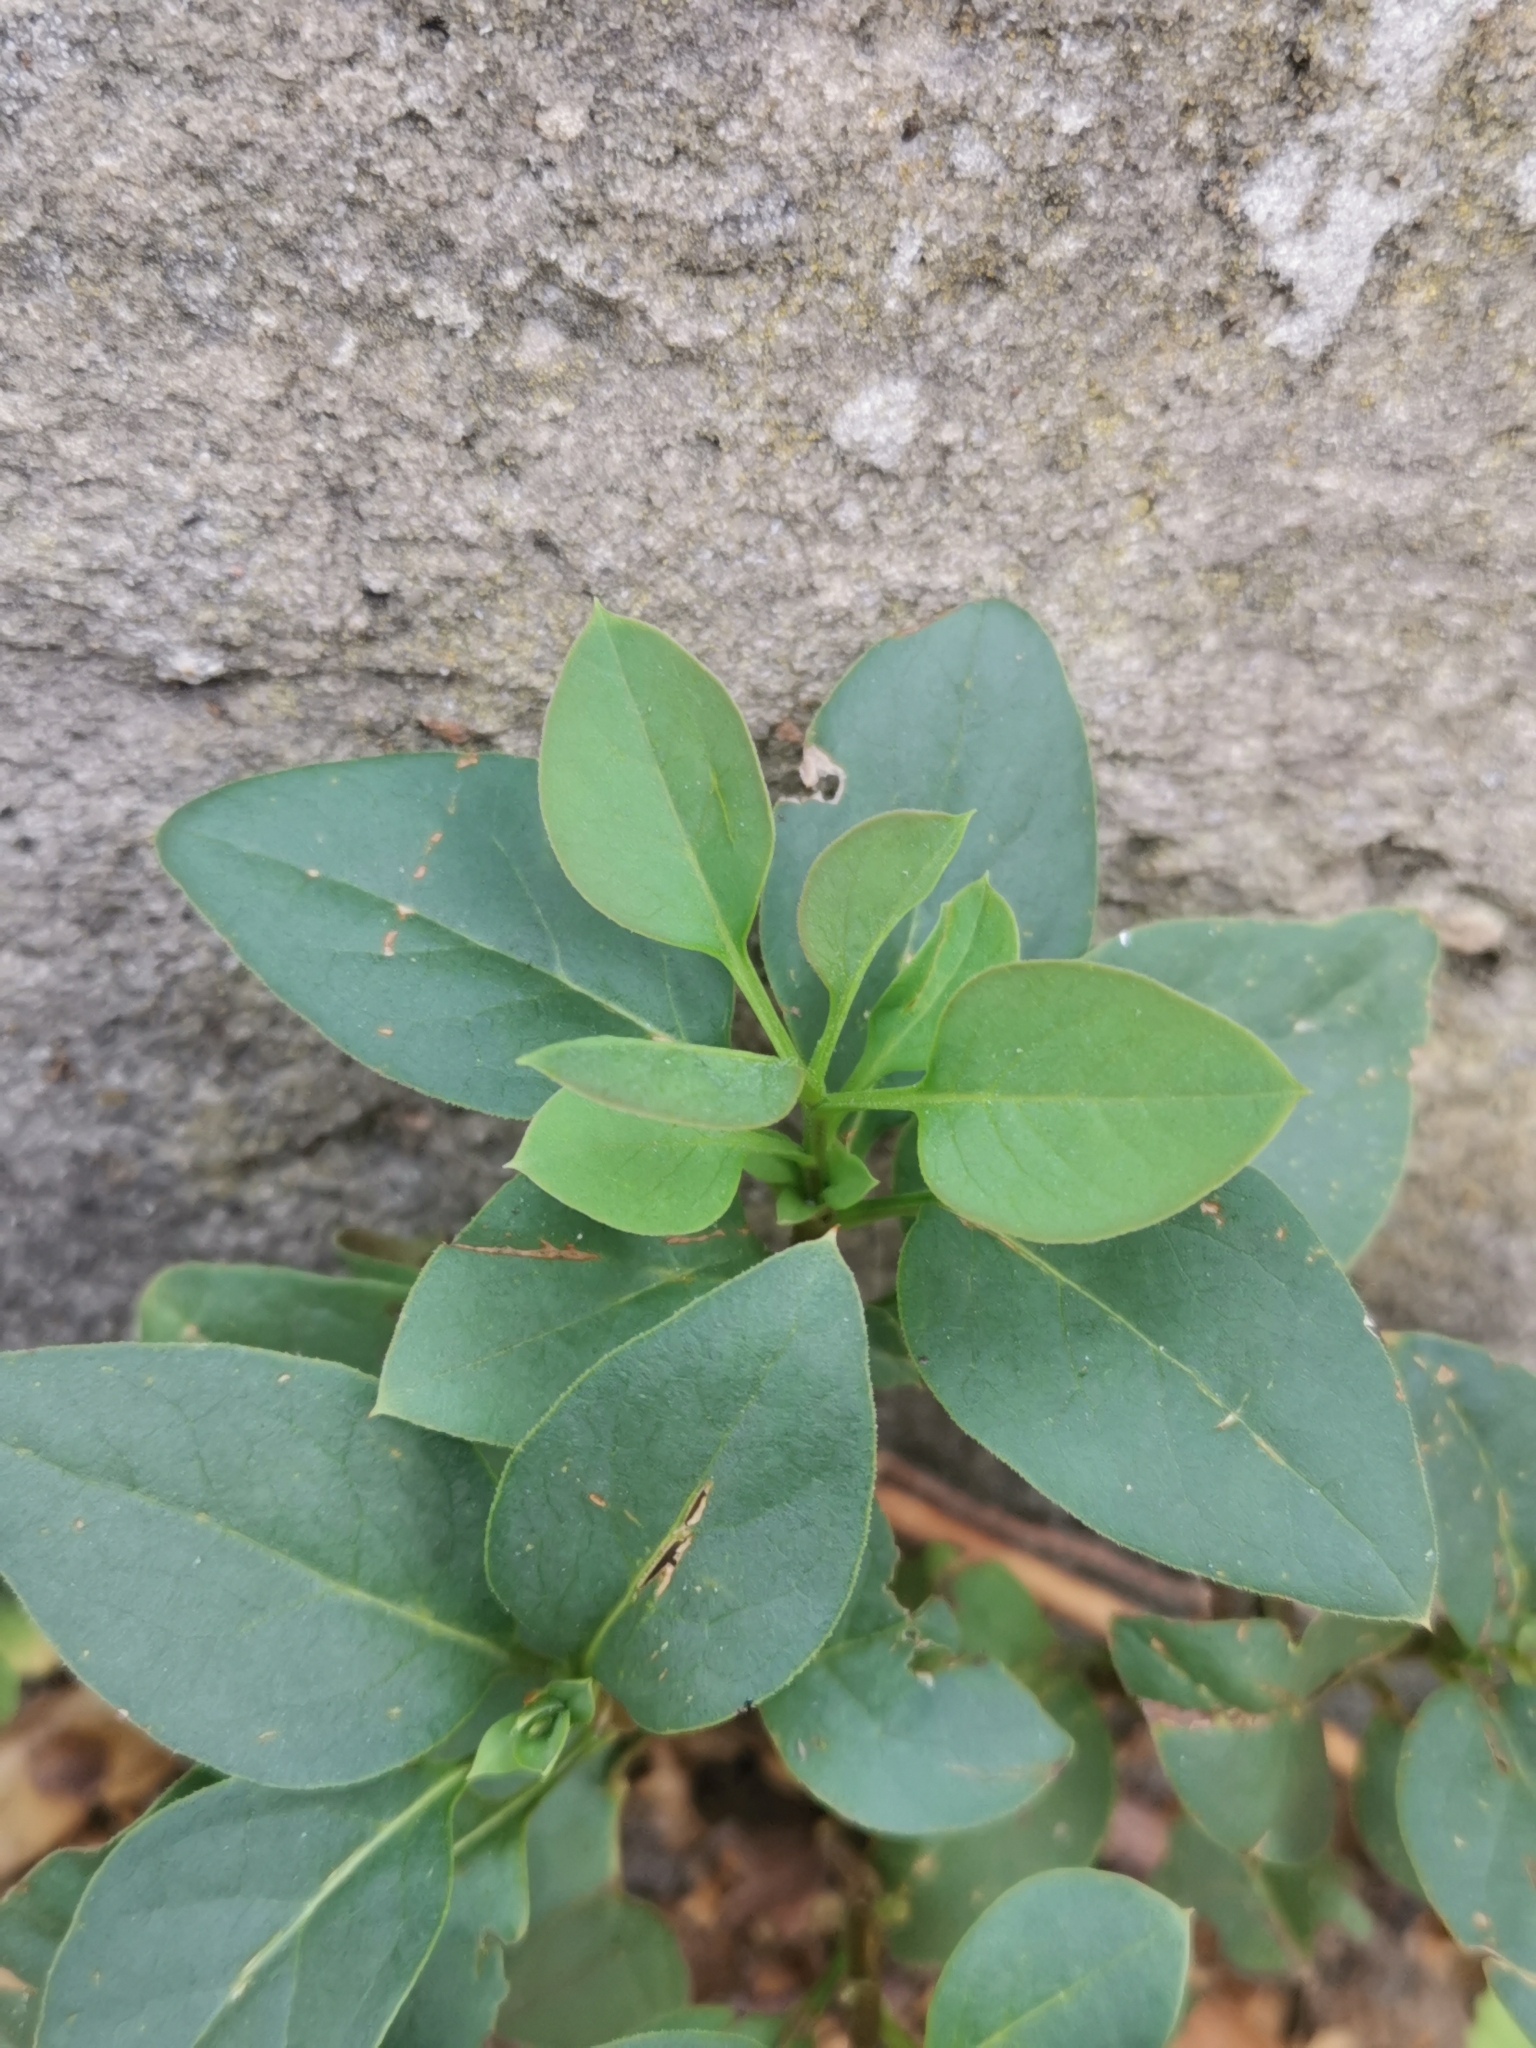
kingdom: Plantae
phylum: Tracheophyta
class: Magnoliopsida
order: Lamiales
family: Oleaceae
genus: Syringa
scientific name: Syringa vulgaris
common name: Common lilac
